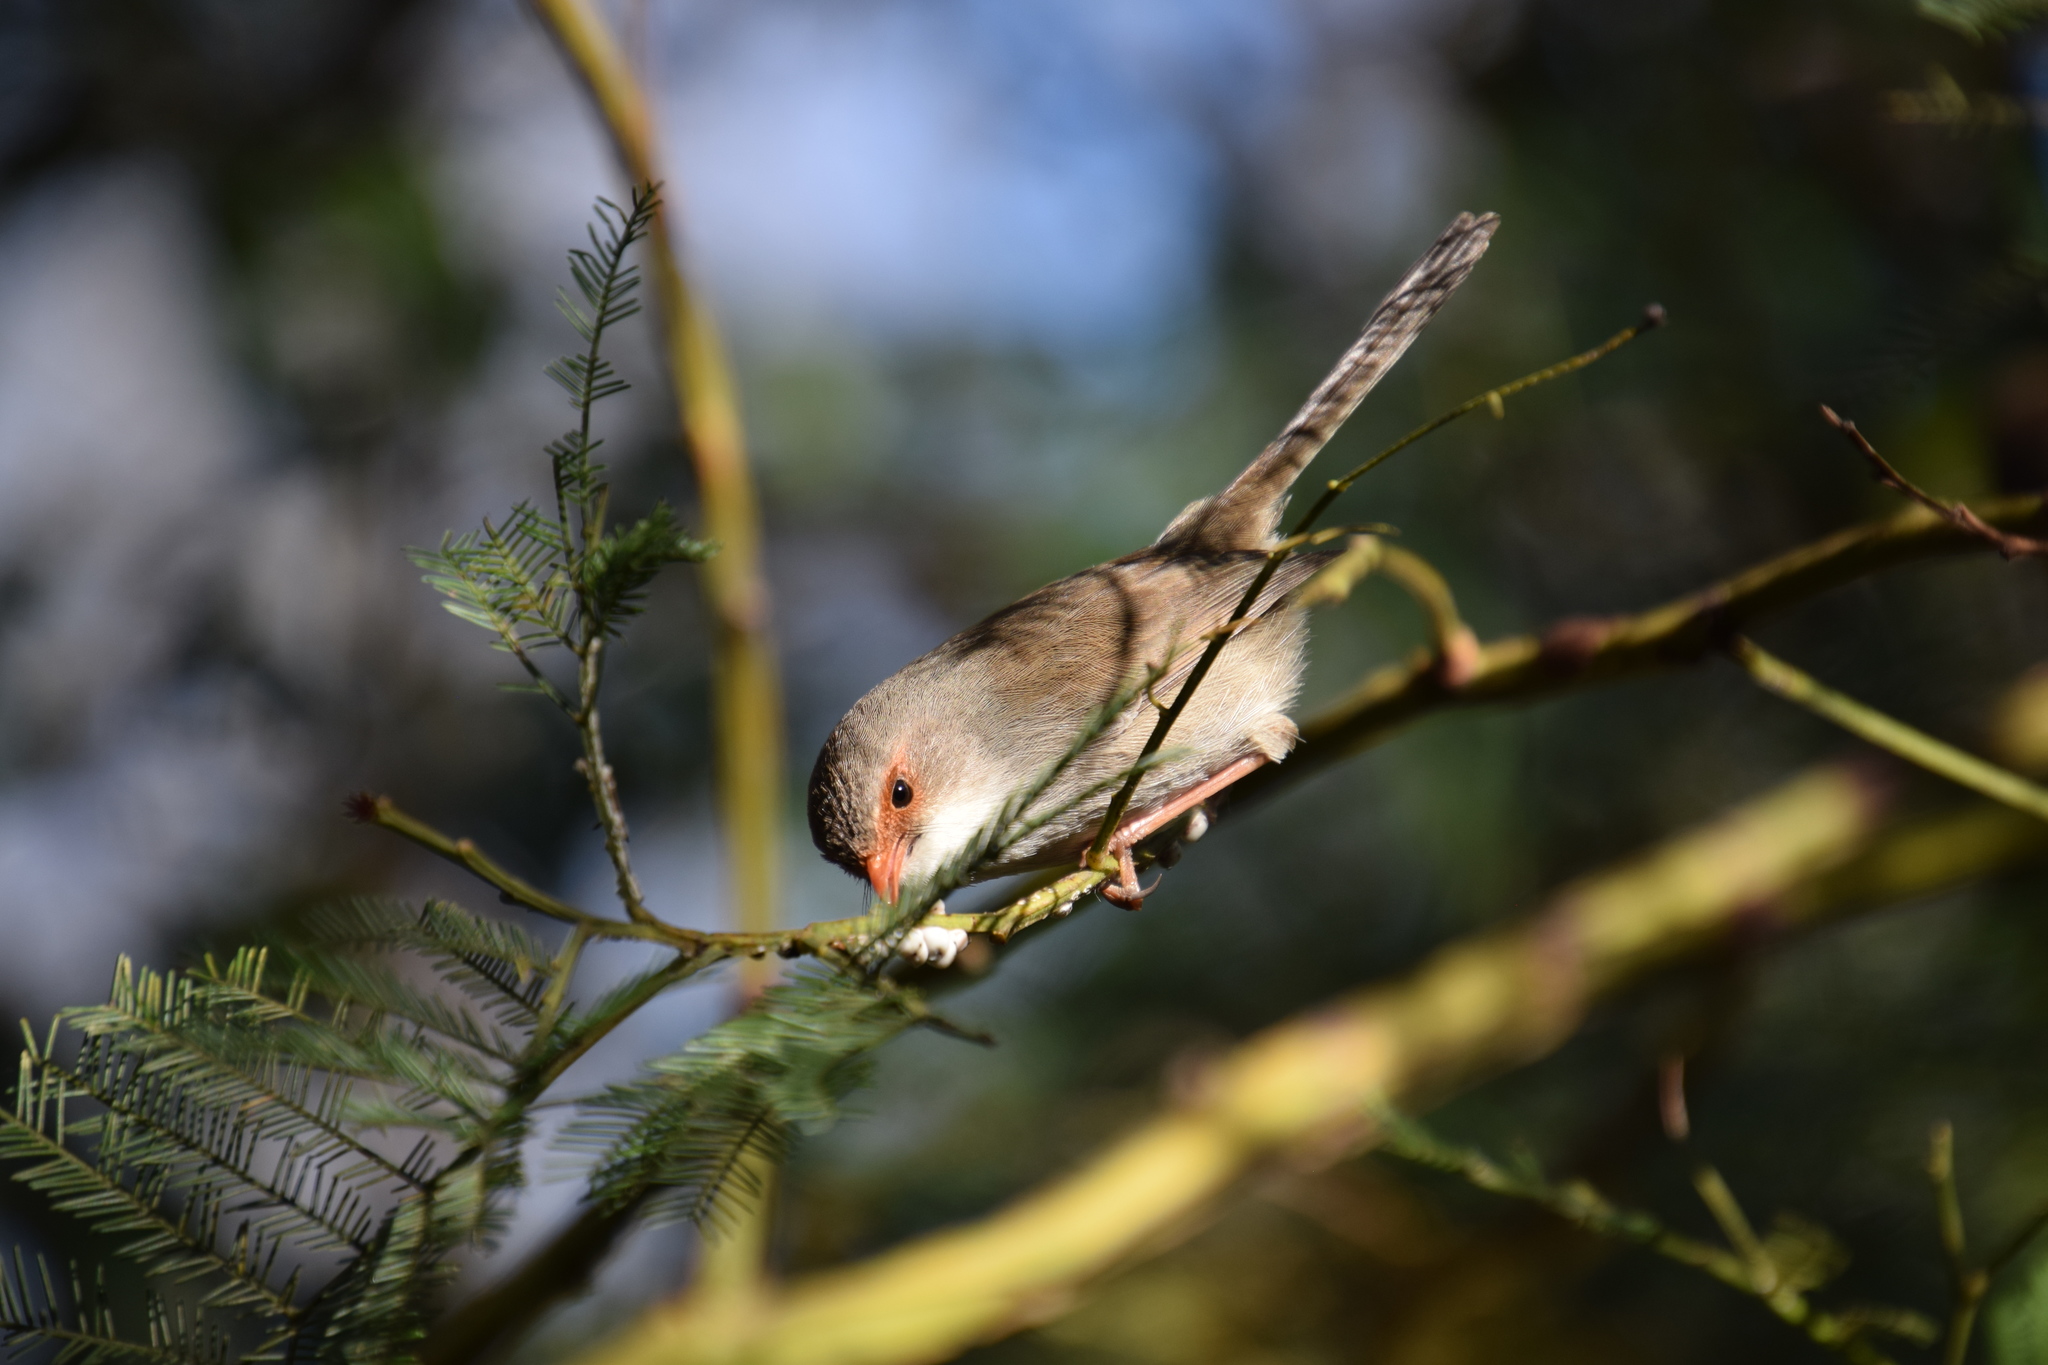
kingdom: Animalia
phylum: Chordata
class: Aves
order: Passeriformes
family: Maluridae
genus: Malurus
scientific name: Malurus cyaneus
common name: Superb fairywren
